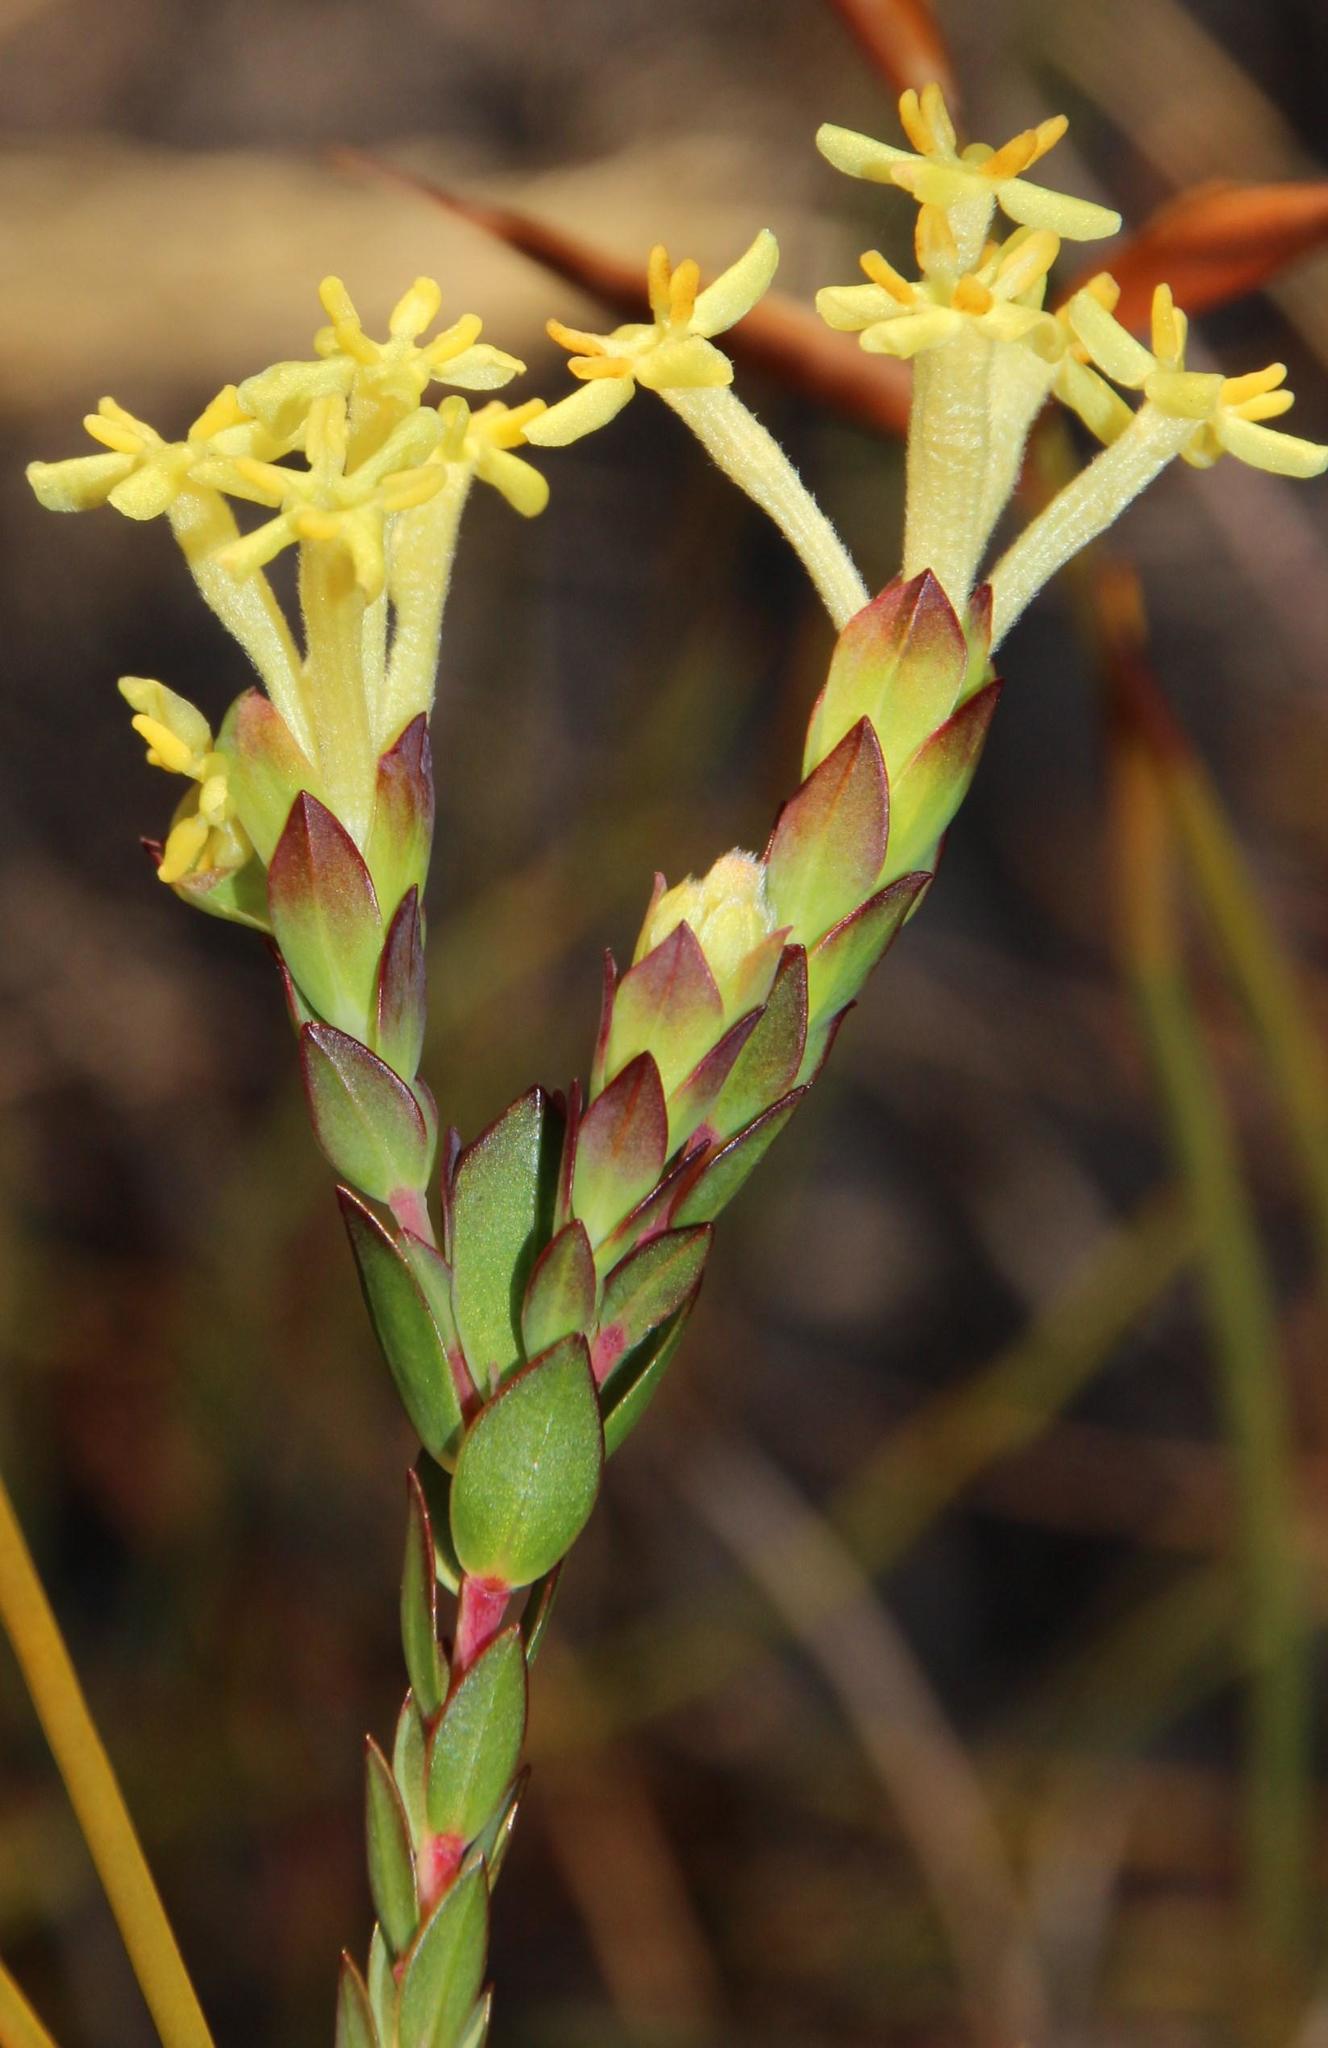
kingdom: Plantae
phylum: Tracheophyta
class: Magnoliopsida
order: Malvales
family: Thymelaeaceae
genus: Gnidia
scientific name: Gnidia oppositifolia
